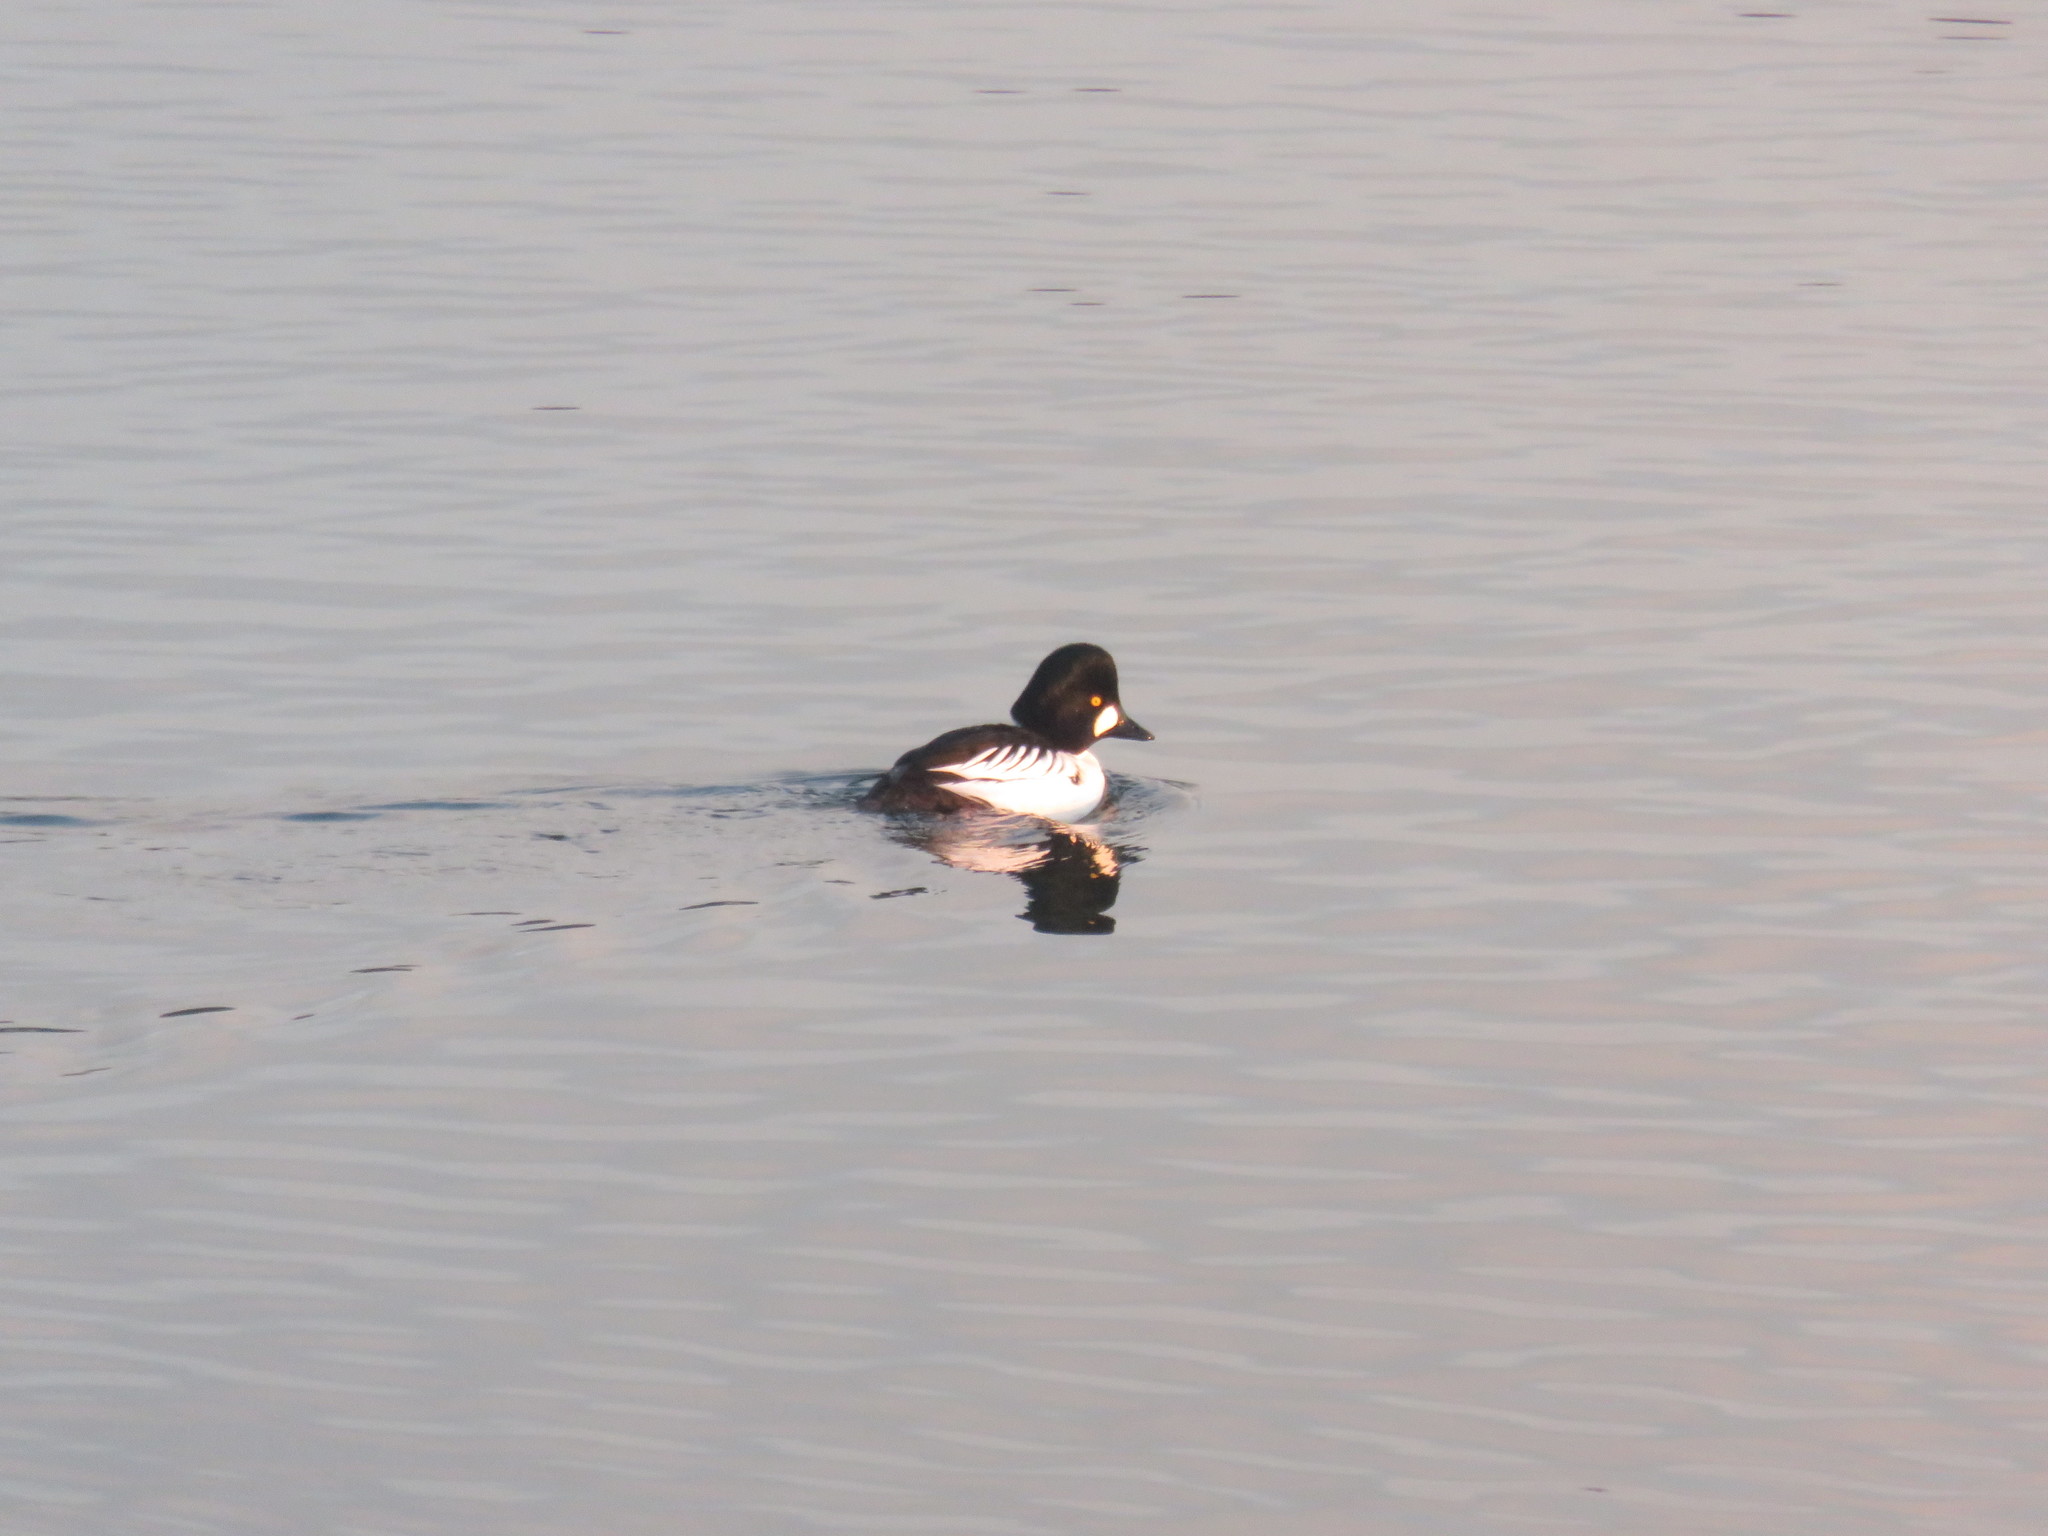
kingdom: Animalia
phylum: Chordata
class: Aves
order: Anseriformes
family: Anatidae
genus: Bucephala
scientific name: Bucephala clangula
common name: Common goldeneye
